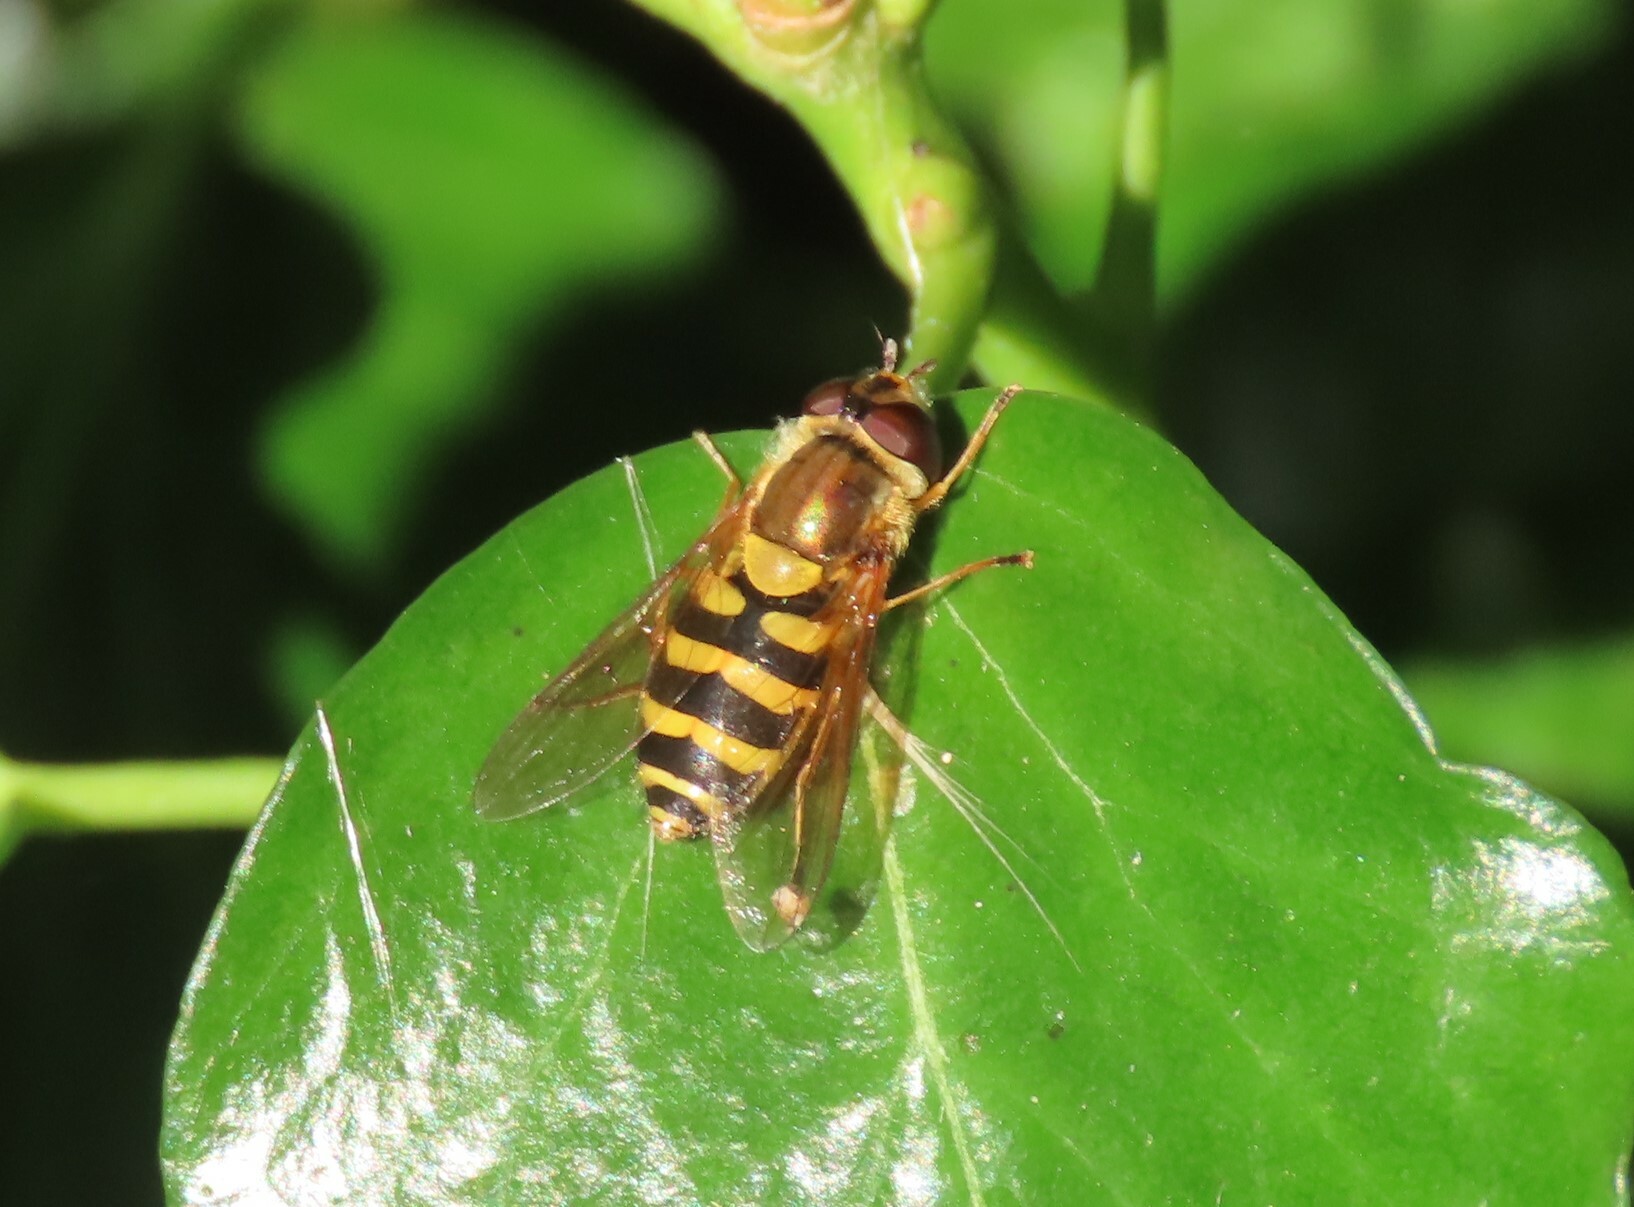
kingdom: Animalia
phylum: Arthropoda
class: Insecta
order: Diptera
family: Syrphidae
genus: Syrphus
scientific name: Syrphus
